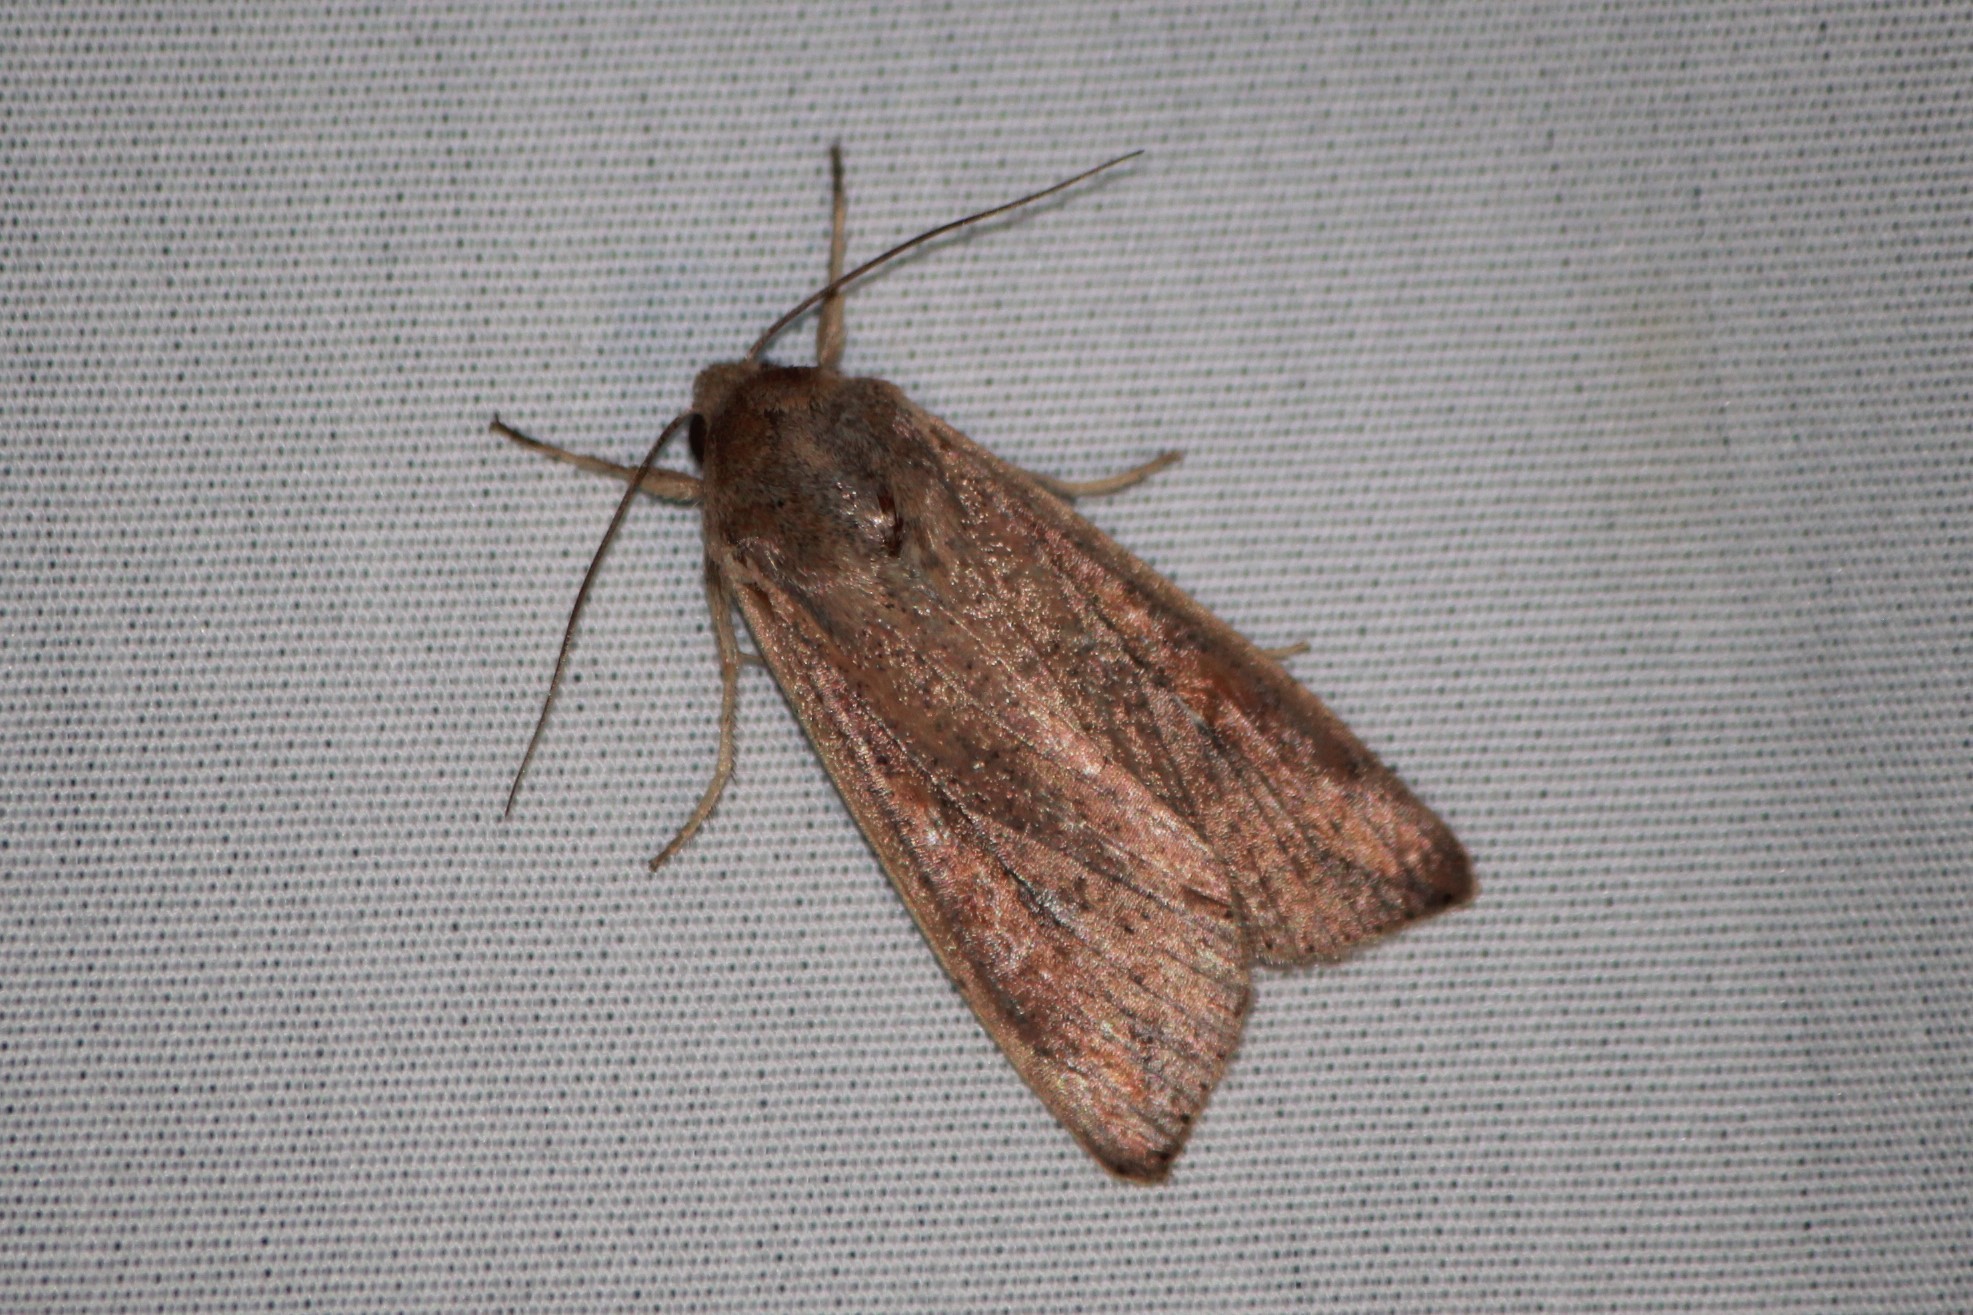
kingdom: Animalia
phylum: Arthropoda
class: Insecta
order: Lepidoptera
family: Noctuidae
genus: Mythimna
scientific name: Mythimna unipuncta
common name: White-speck
